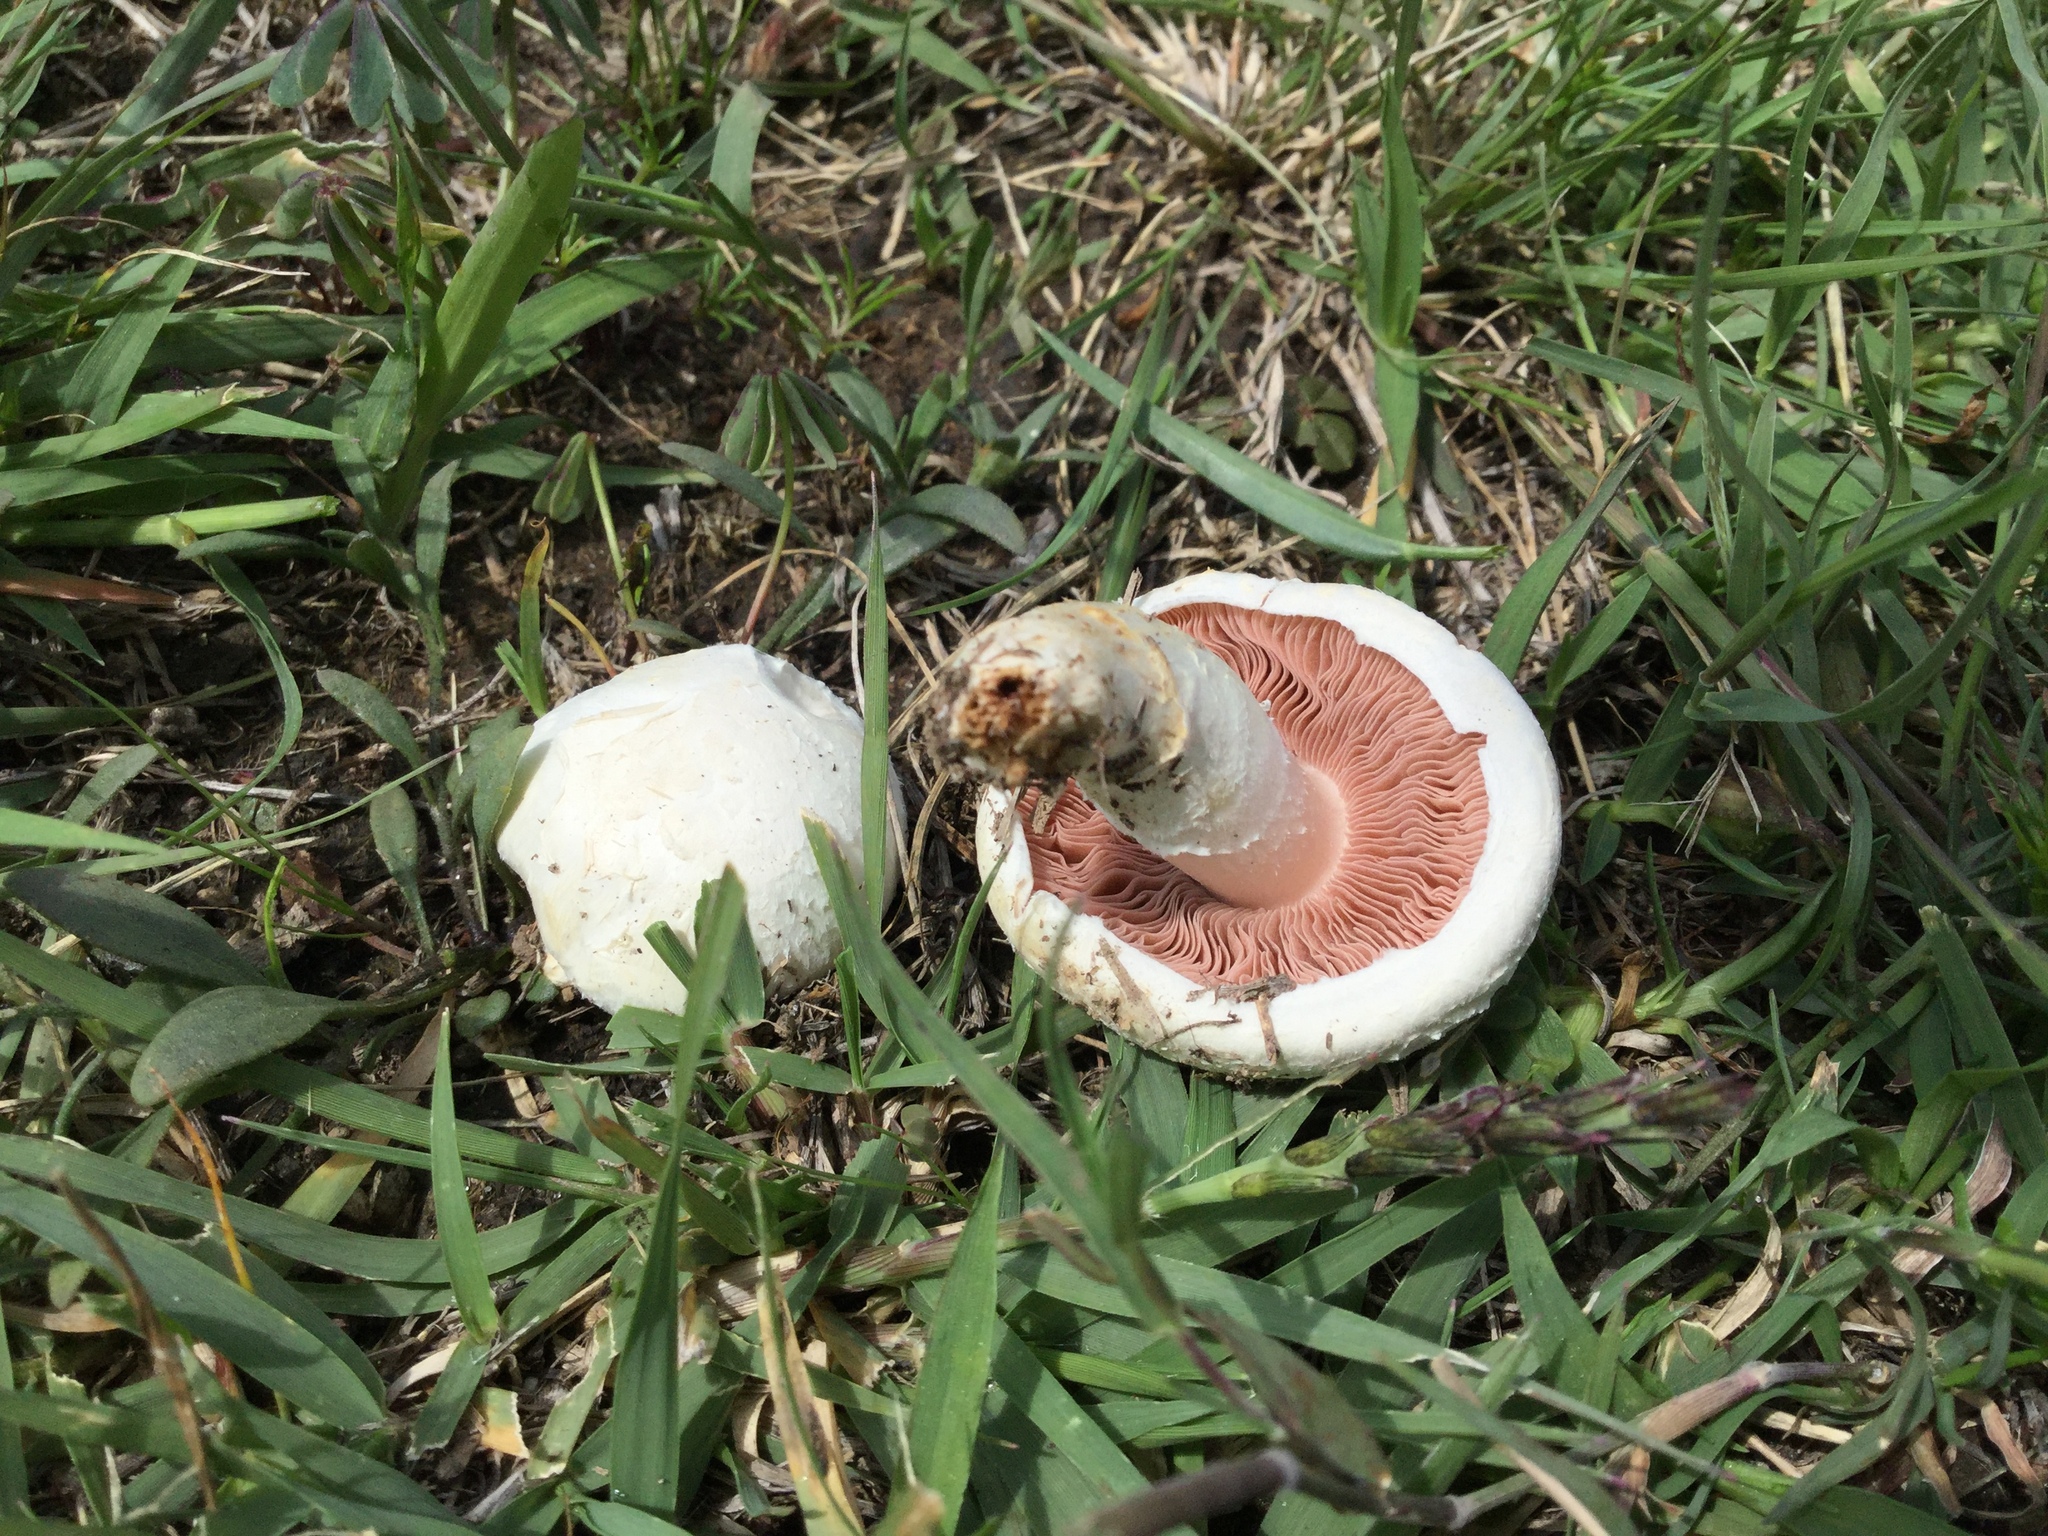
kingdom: Fungi
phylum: Basidiomycota
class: Agaricomycetes
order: Agaricales
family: Agaricaceae
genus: Agaricus
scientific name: Agaricus campestris
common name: Field mushroom
